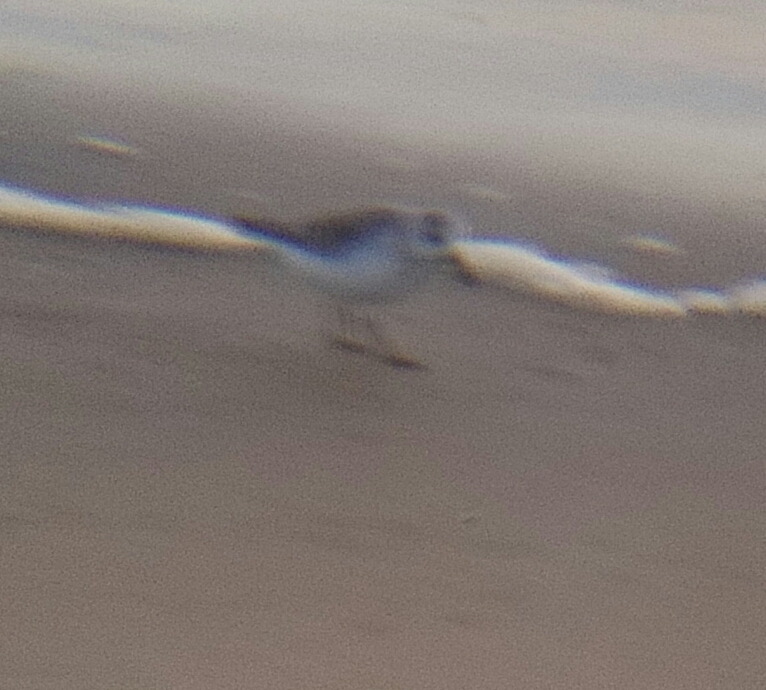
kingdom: Animalia
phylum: Chordata
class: Aves
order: Charadriiformes
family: Scolopacidae
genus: Calidris
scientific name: Calidris alba
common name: Sanderling
